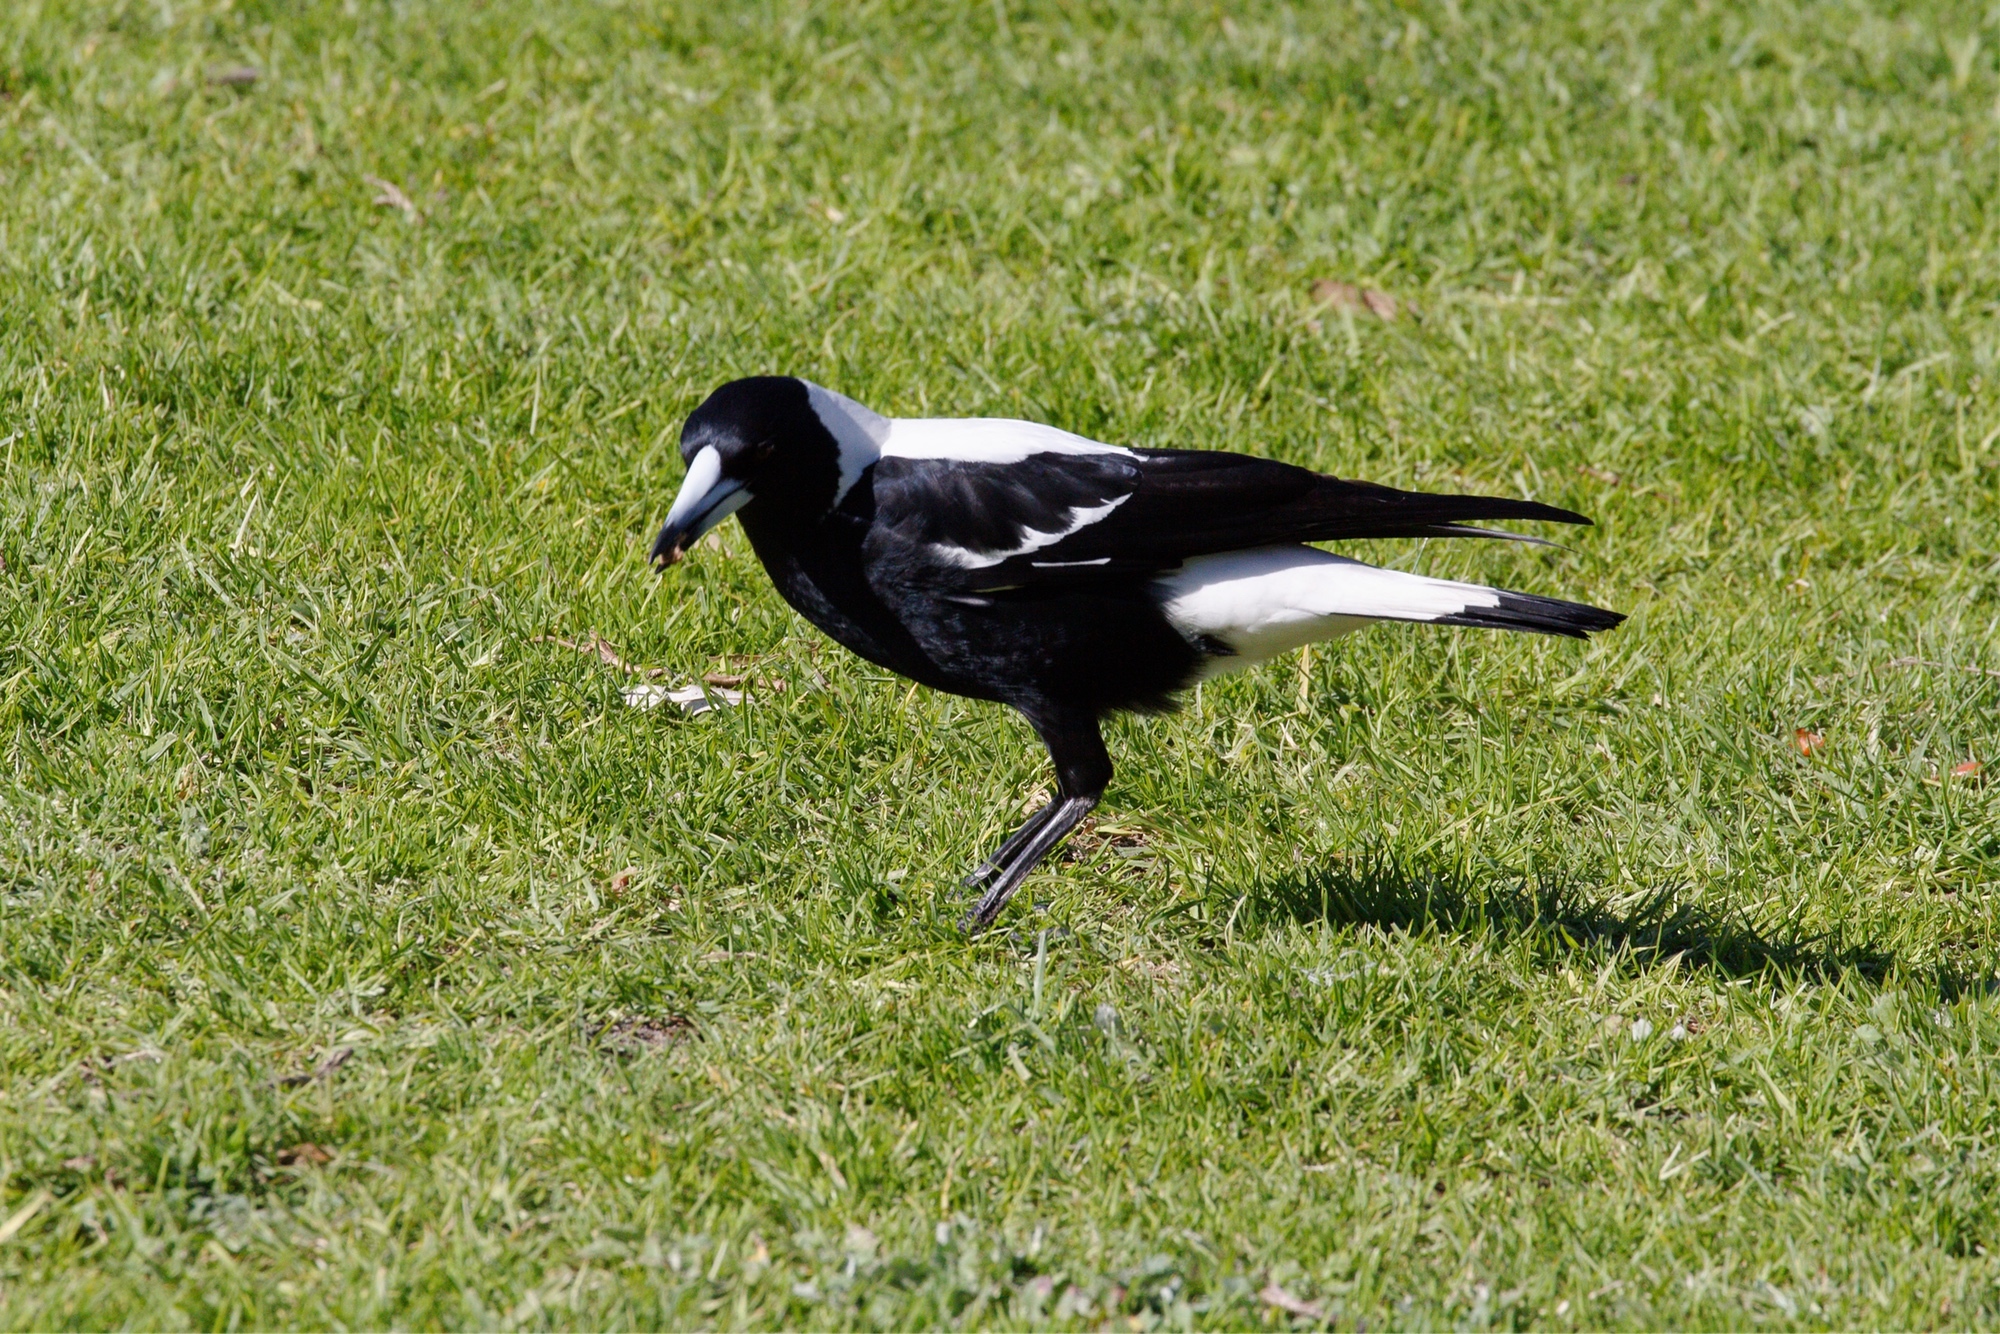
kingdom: Animalia
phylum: Chordata
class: Aves
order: Passeriformes
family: Cracticidae
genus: Gymnorhina
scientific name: Gymnorhina tibicen
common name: Australian magpie
